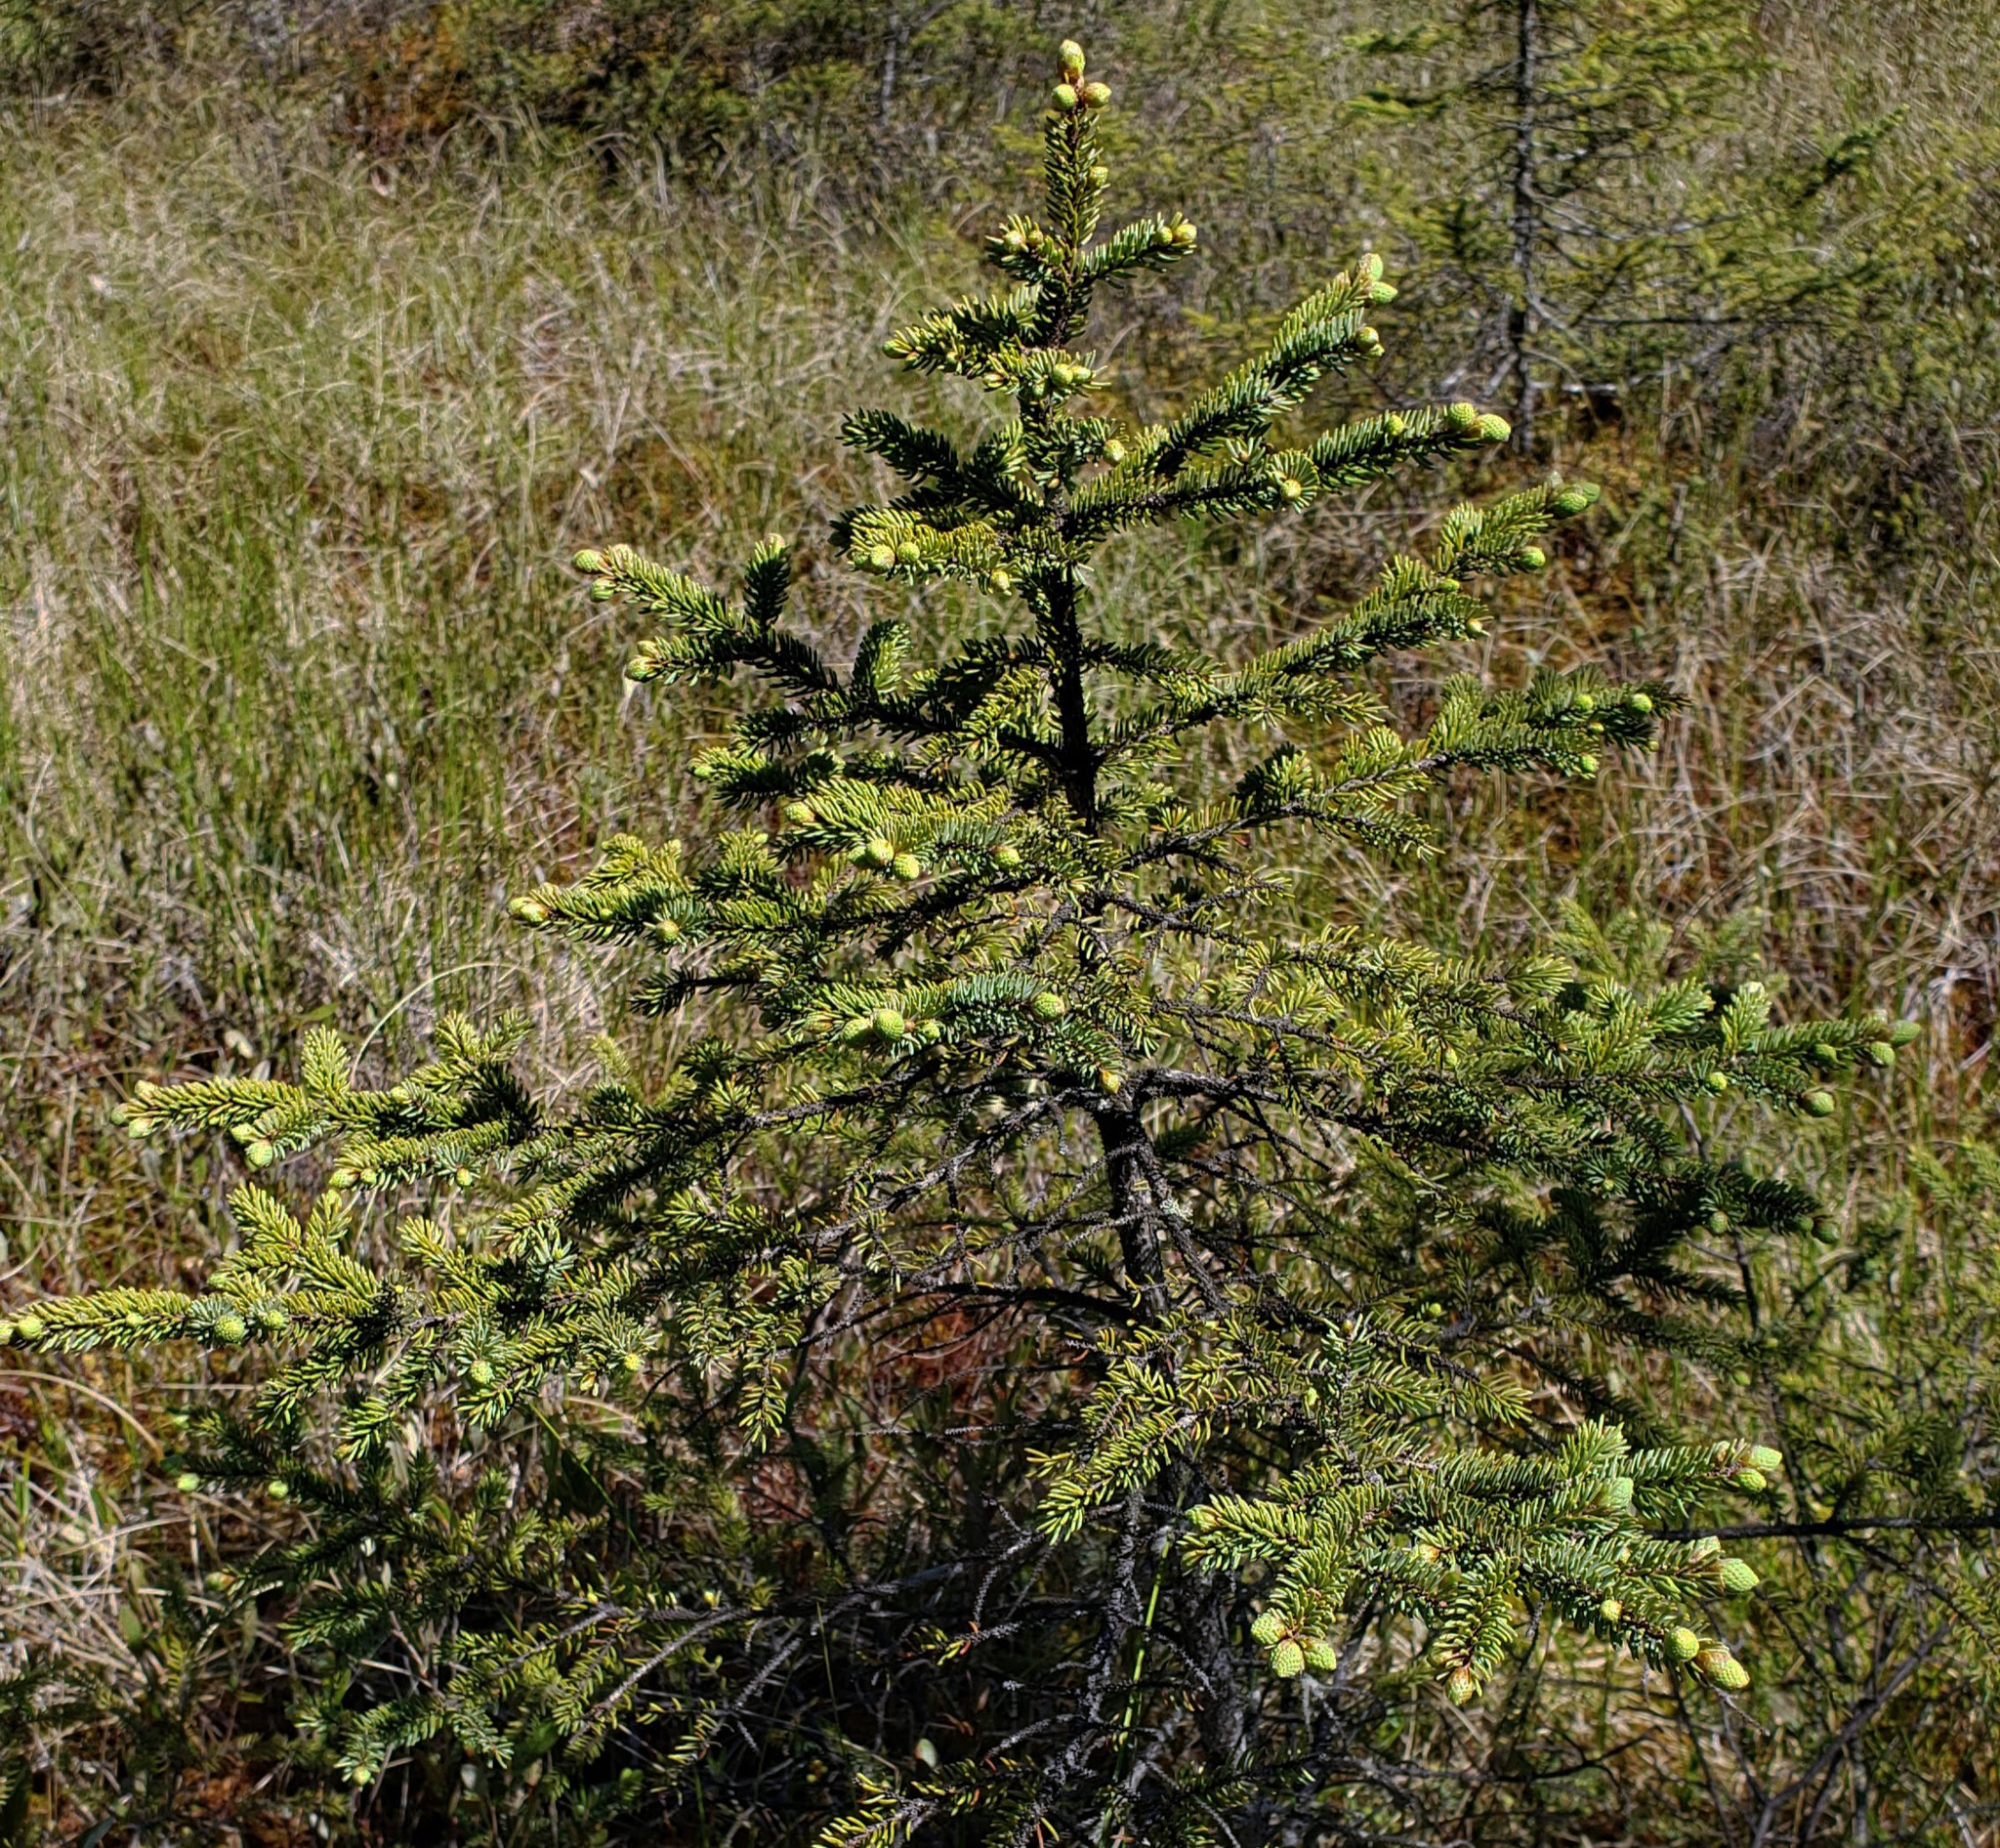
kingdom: Plantae
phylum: Tracheophyta
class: Pinopsida
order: Pinales
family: Pinaceae
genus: Picea
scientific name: Picea mariana
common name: Black spruce
